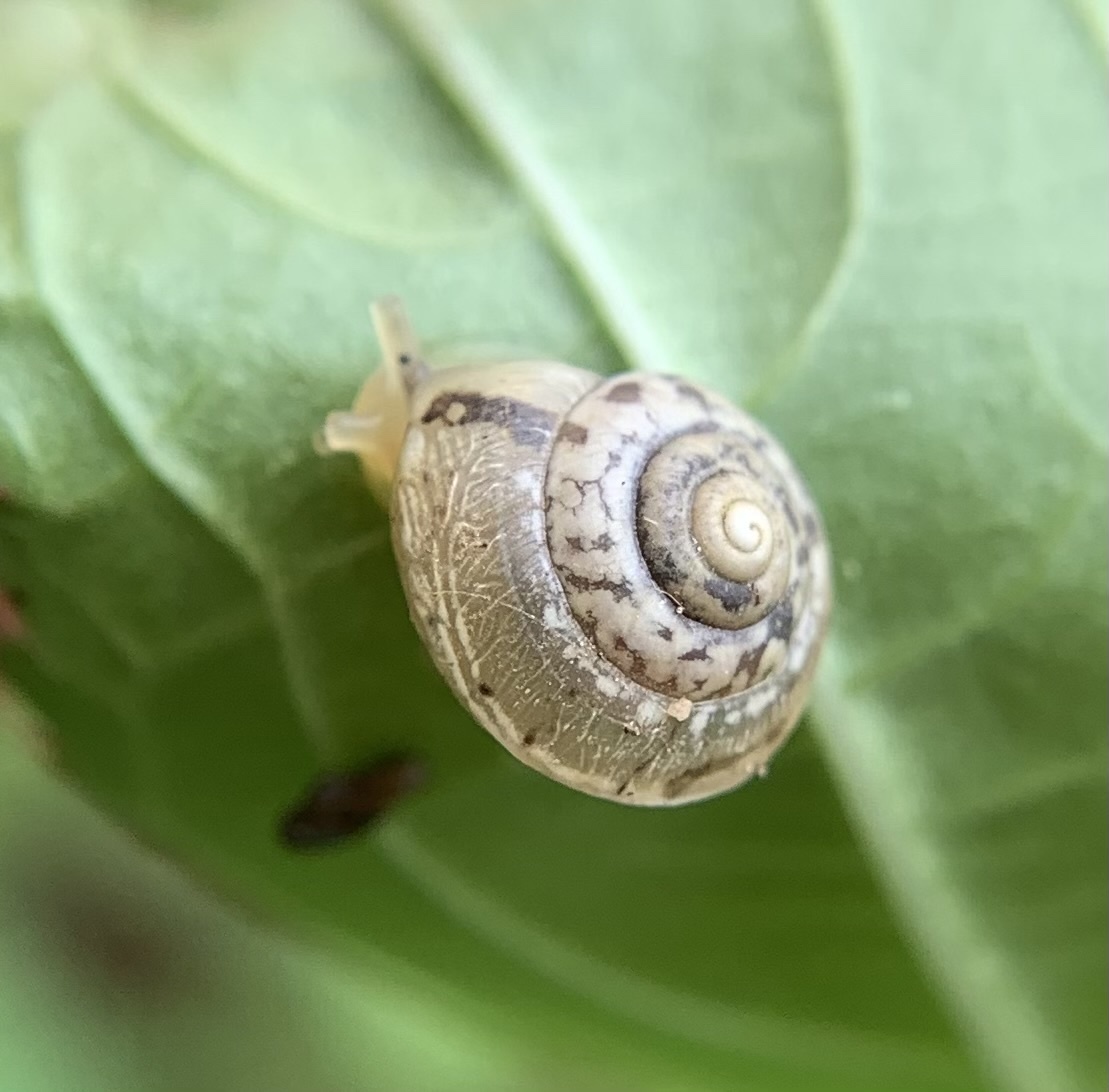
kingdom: Animalia
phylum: Mollusca
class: Gastropoda
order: Stylommatophora
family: Hygromiidae
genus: Hygromia
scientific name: Hygromia cinctella
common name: Girdled snail
